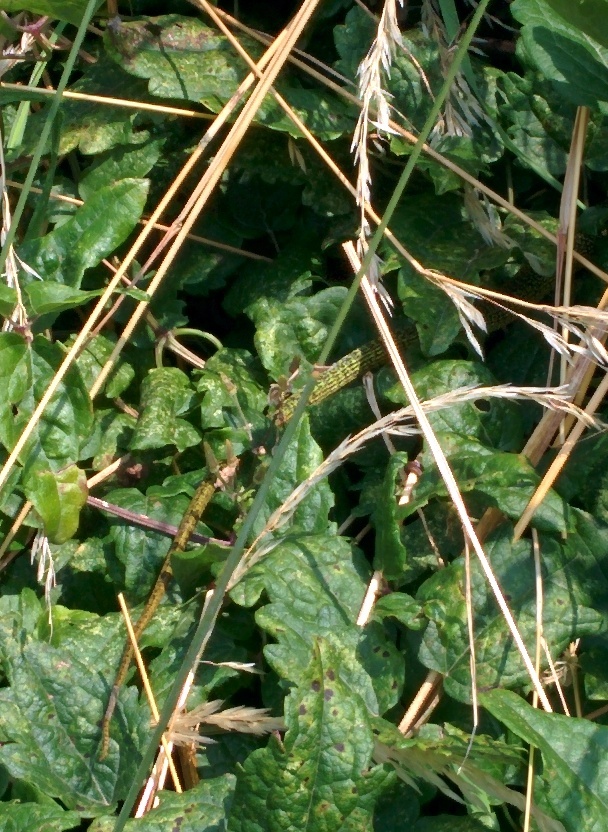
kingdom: Animalia
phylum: Chordata
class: Squamata
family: Lacertidae
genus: Lacerta
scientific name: Lacerta bilineata
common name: Western green lizard
